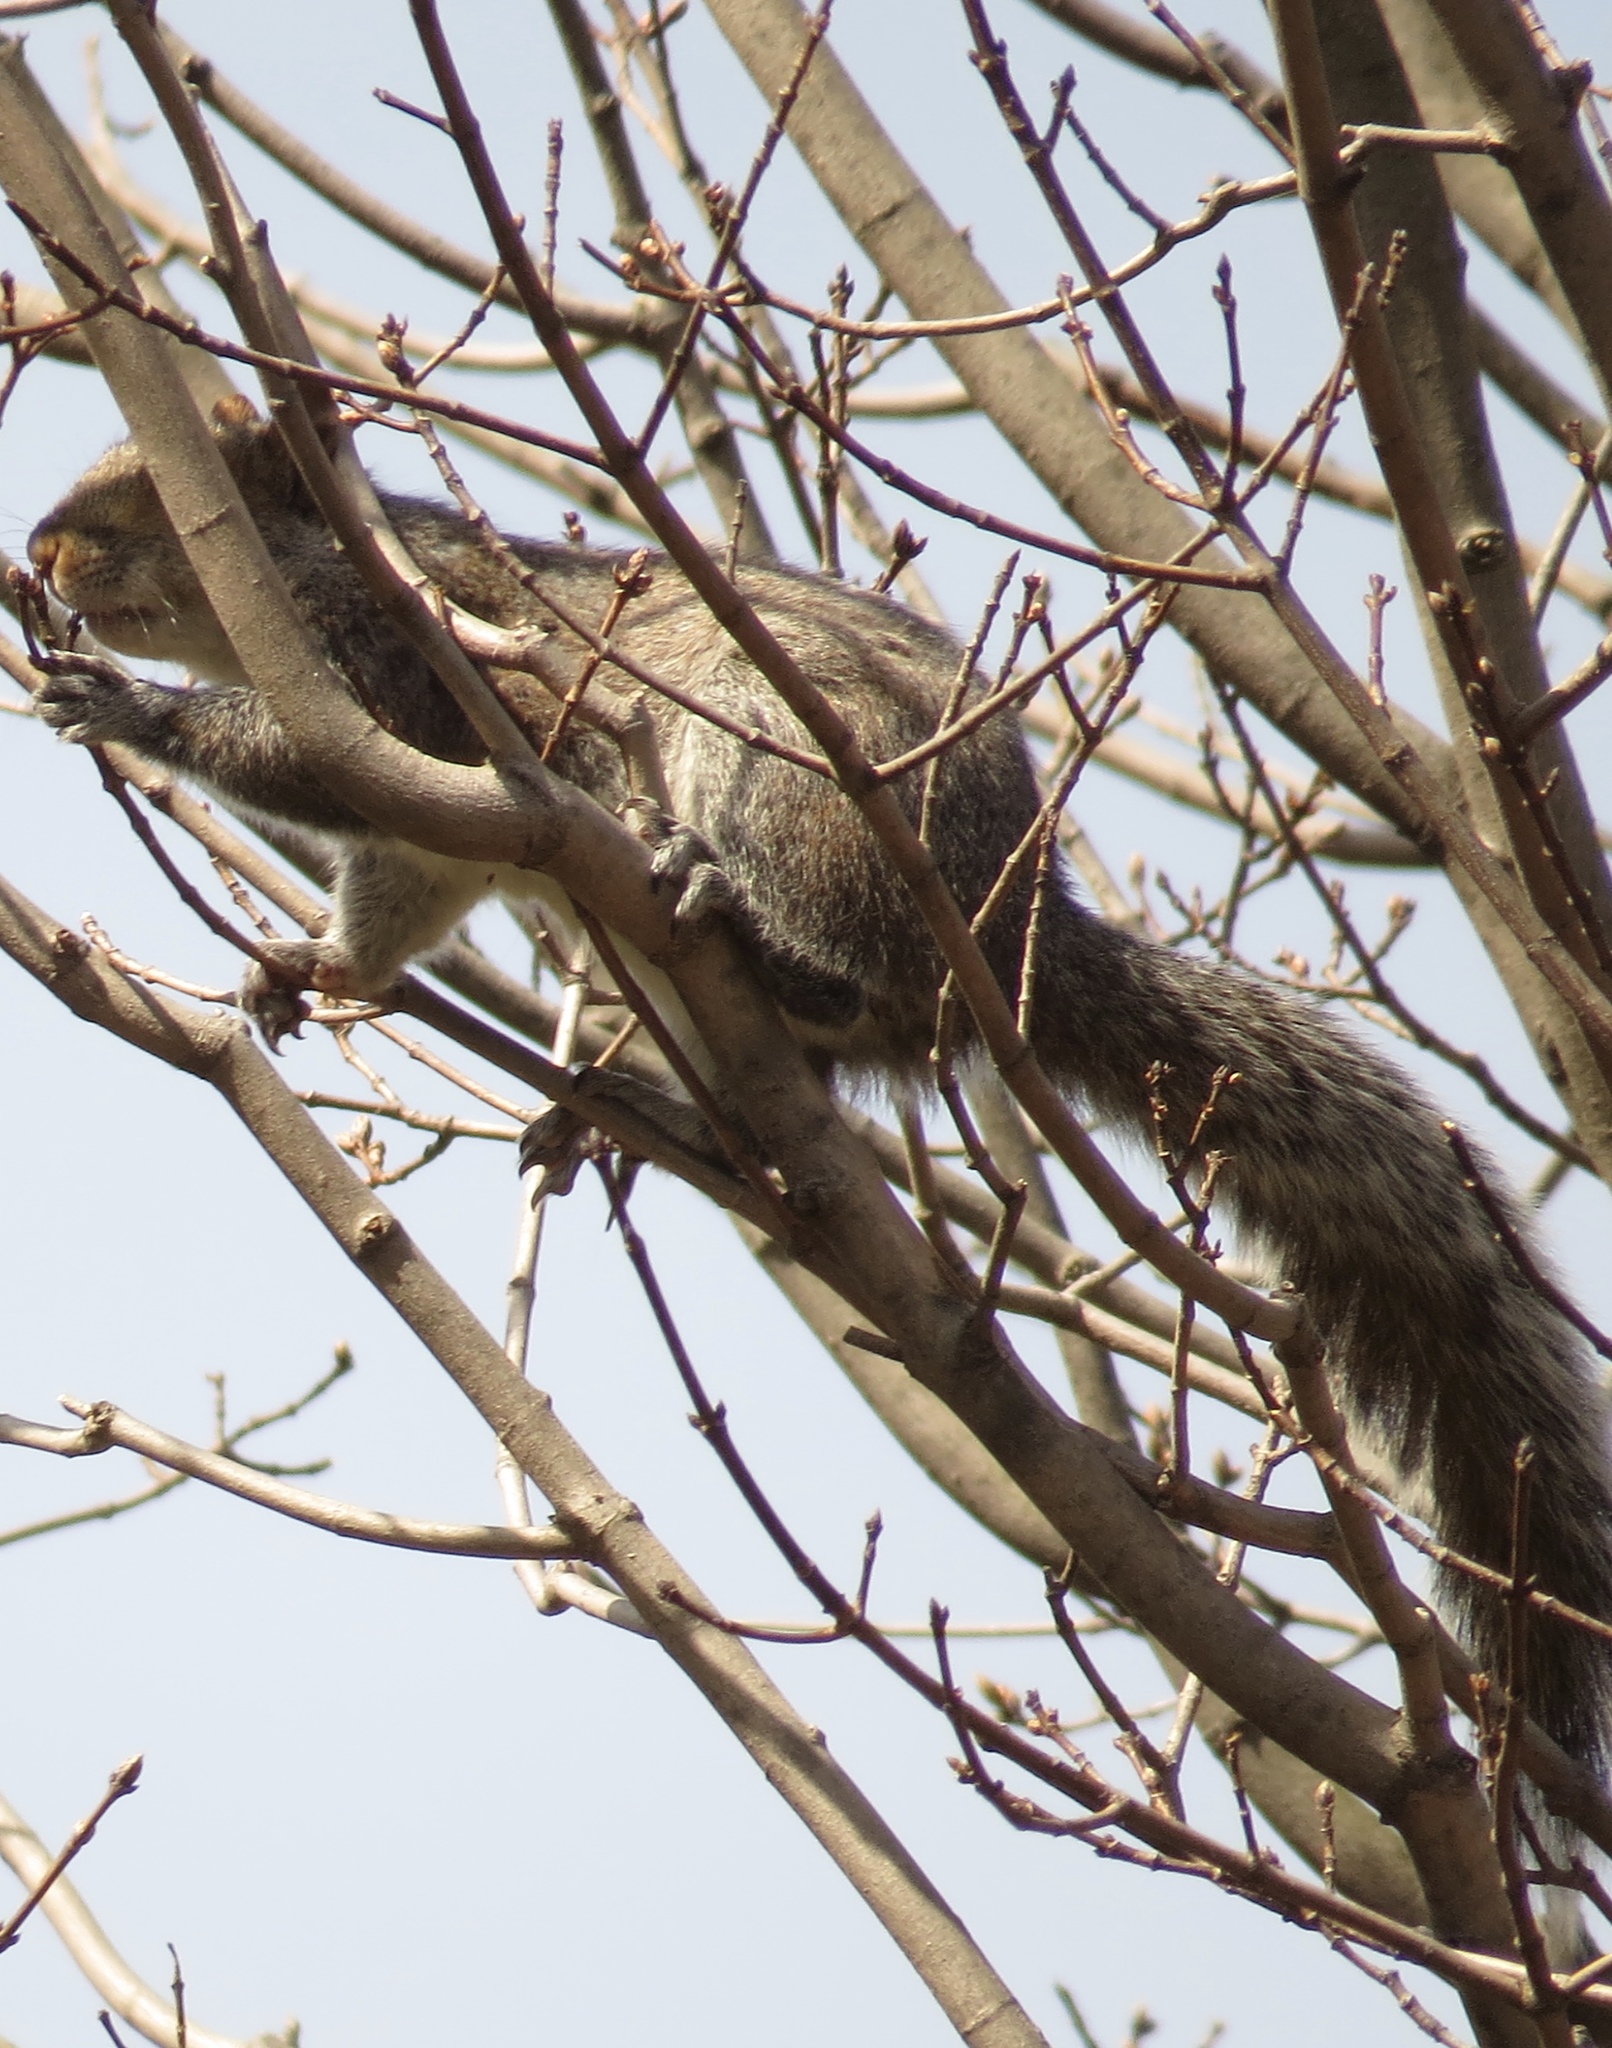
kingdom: Animalia
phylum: Chordata
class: Mammalia
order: Rodentia
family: Sciuridae
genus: Sciurus
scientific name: Sciurus carolinensis
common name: Eastern gray squirrel
